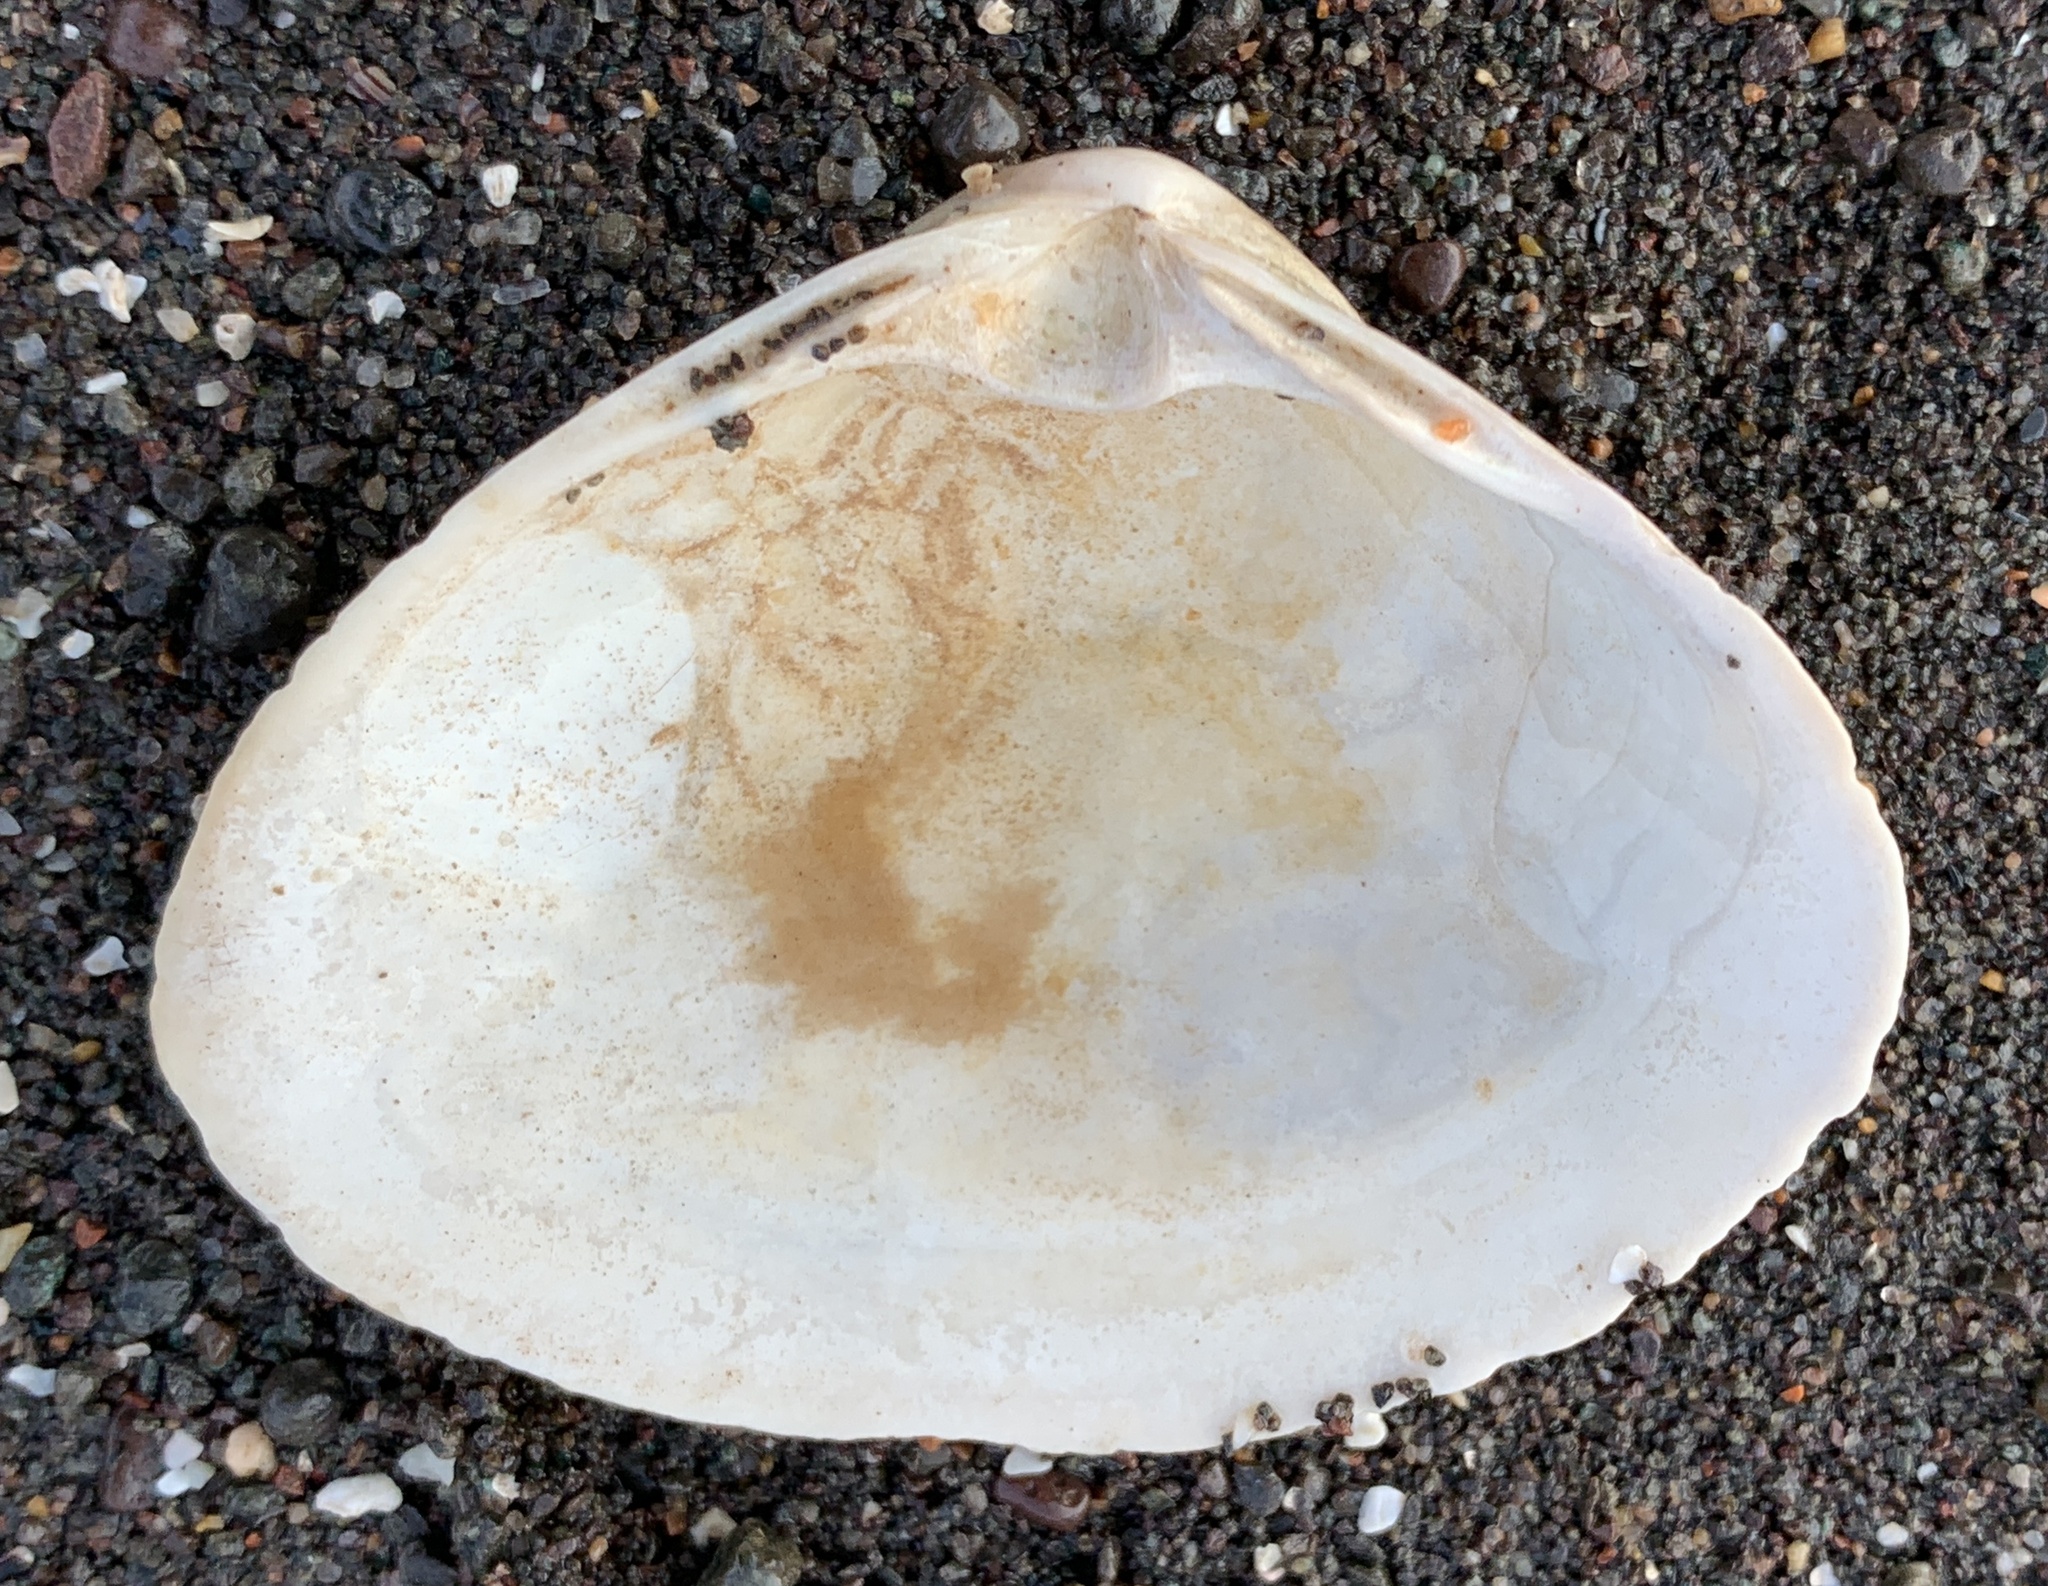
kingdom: Animalia
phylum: Mollusca
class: Bivalvia
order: Venerida
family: Mactridae
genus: Spisula
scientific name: Spisula solidissima
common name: Atlantic surf clam
